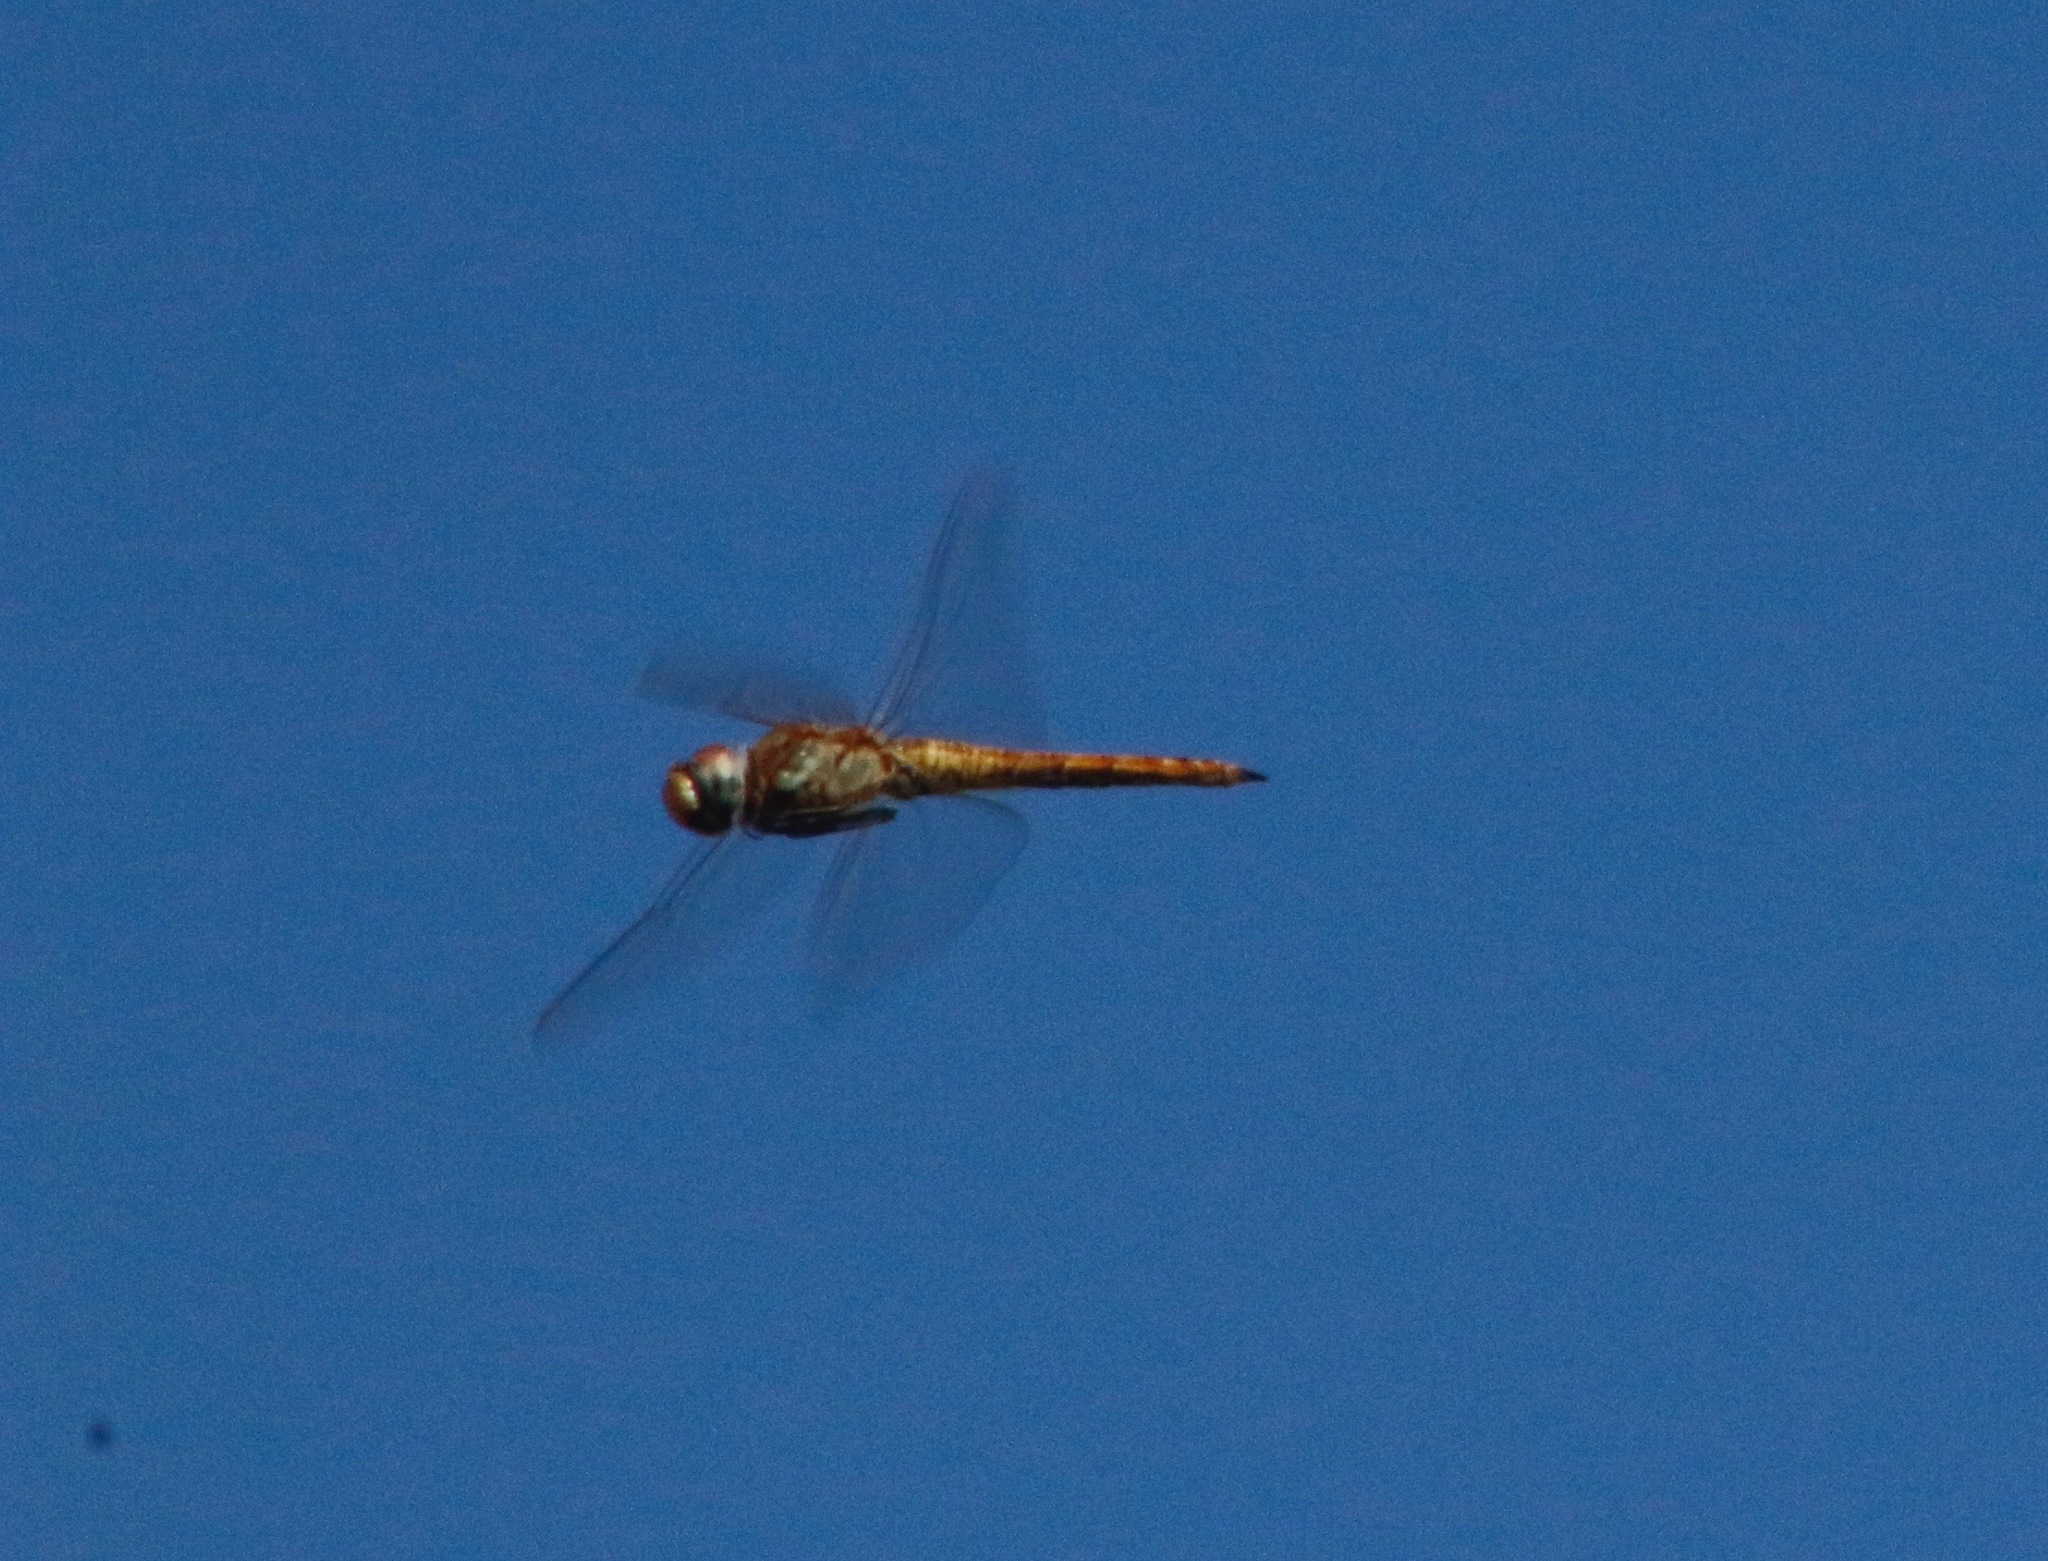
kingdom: Animalia
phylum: Arthropoda
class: Insecta
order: Odonata
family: Libellulidae
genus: Pantala
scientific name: Pantala flavescens
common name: Wandering glider
